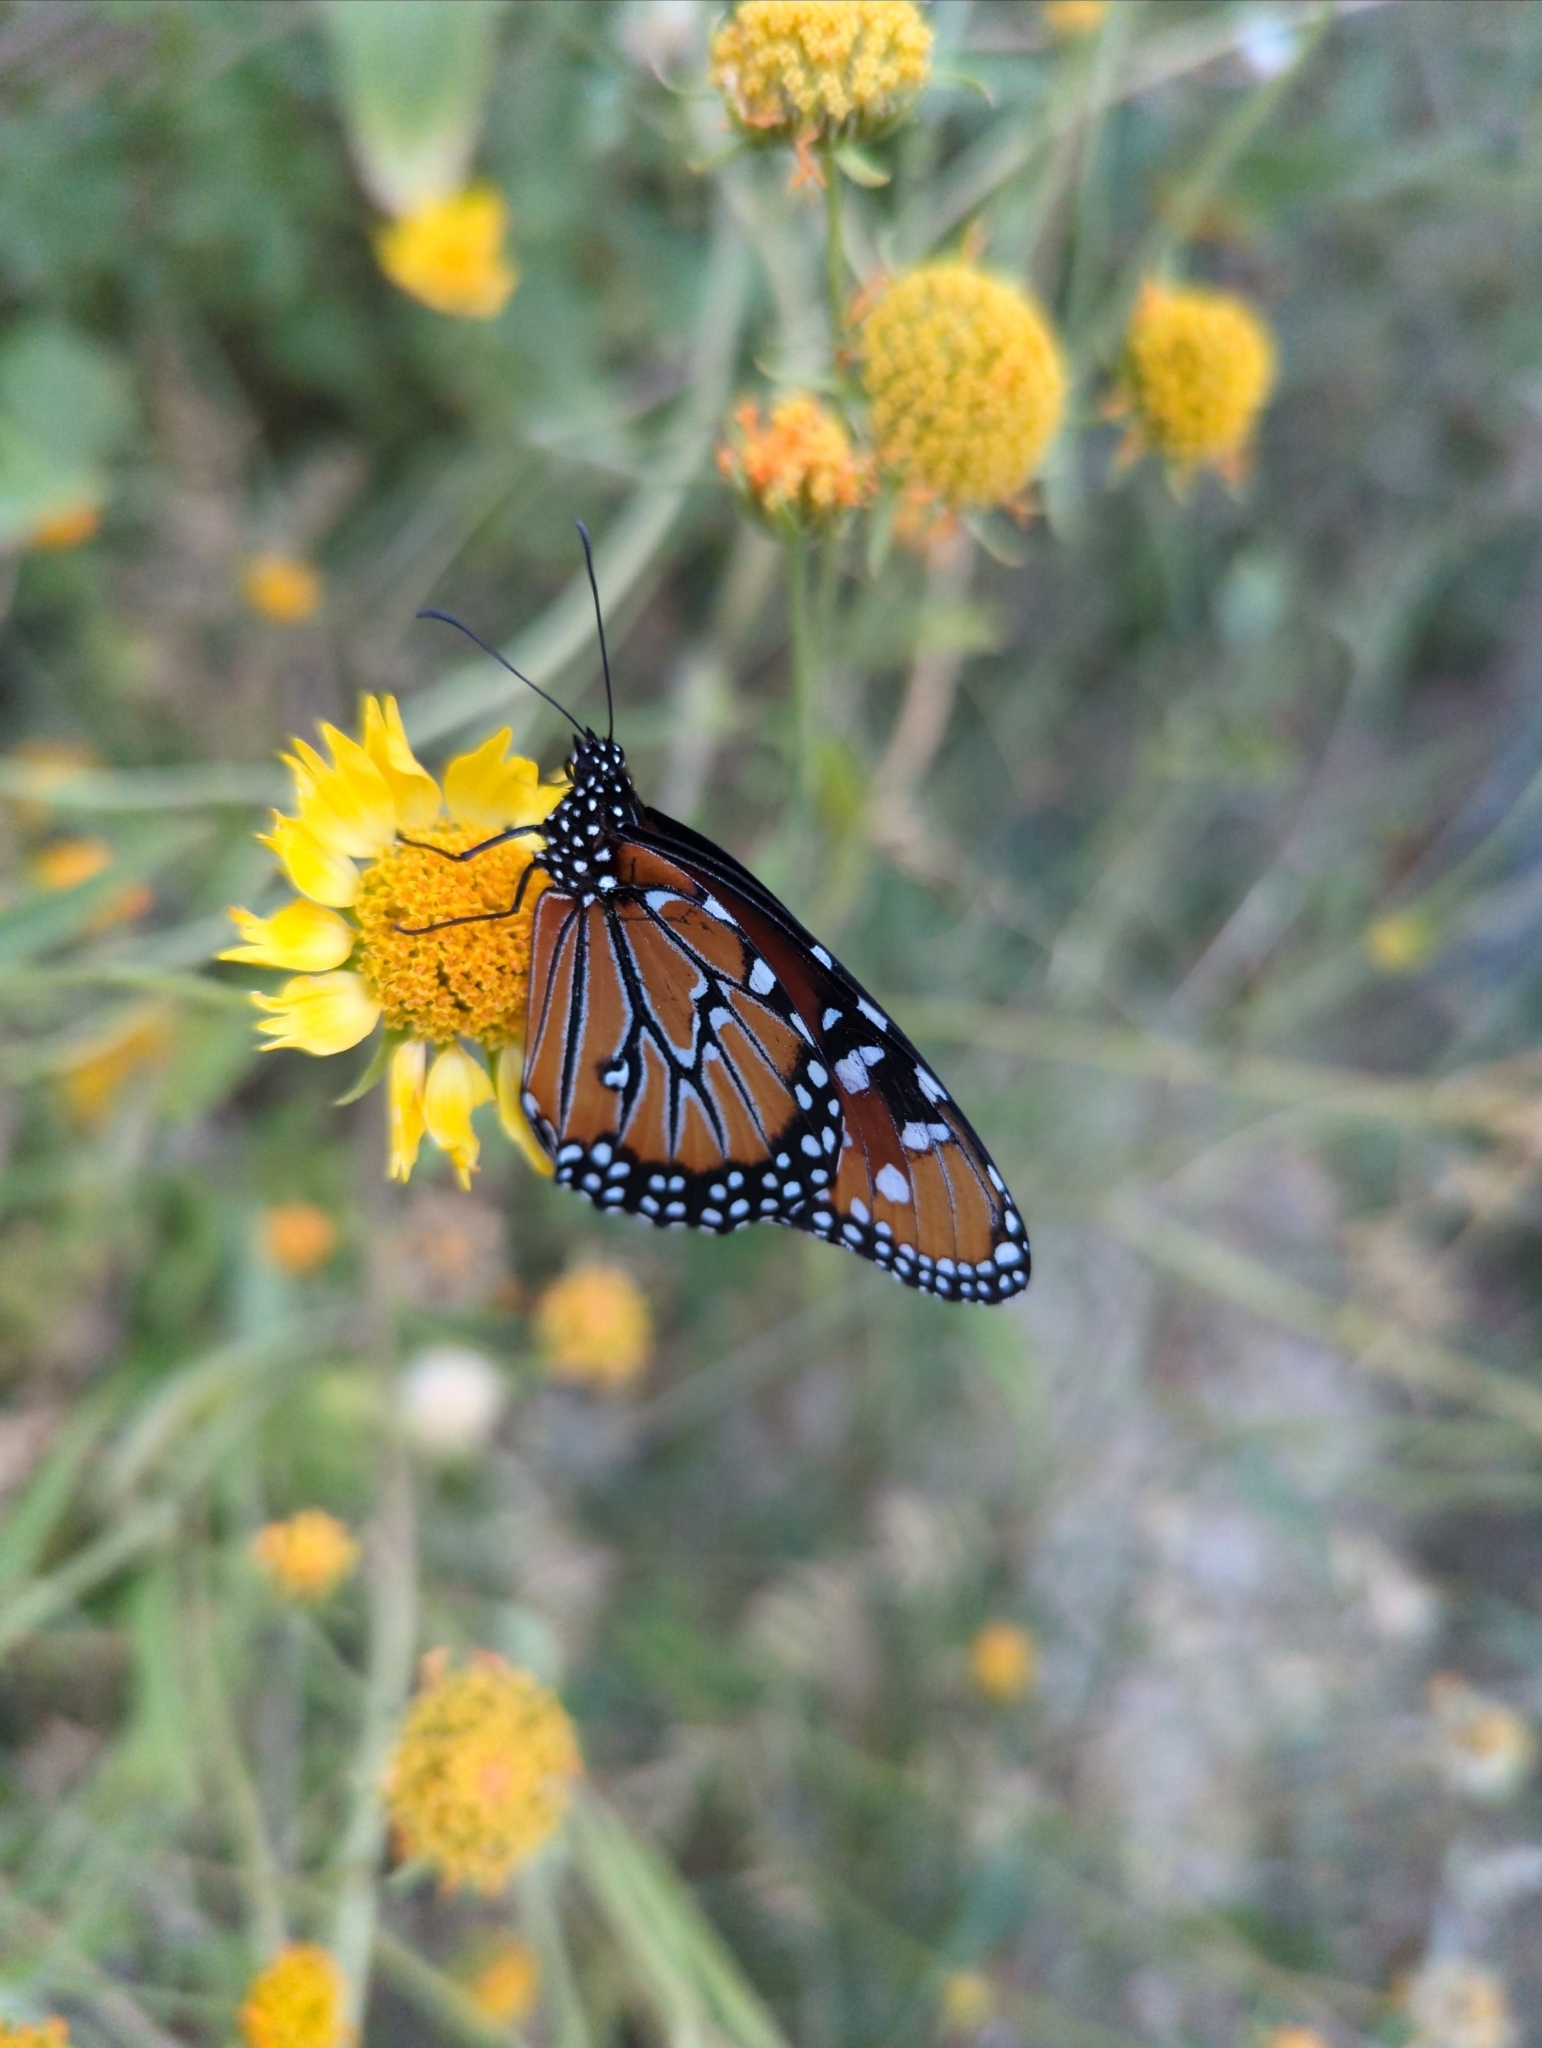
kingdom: Animalia
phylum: Arthropoda
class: Insecta
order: Lepidoptera
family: Nymphalidae
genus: Danaus
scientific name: Danaus gilippus
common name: Queen
